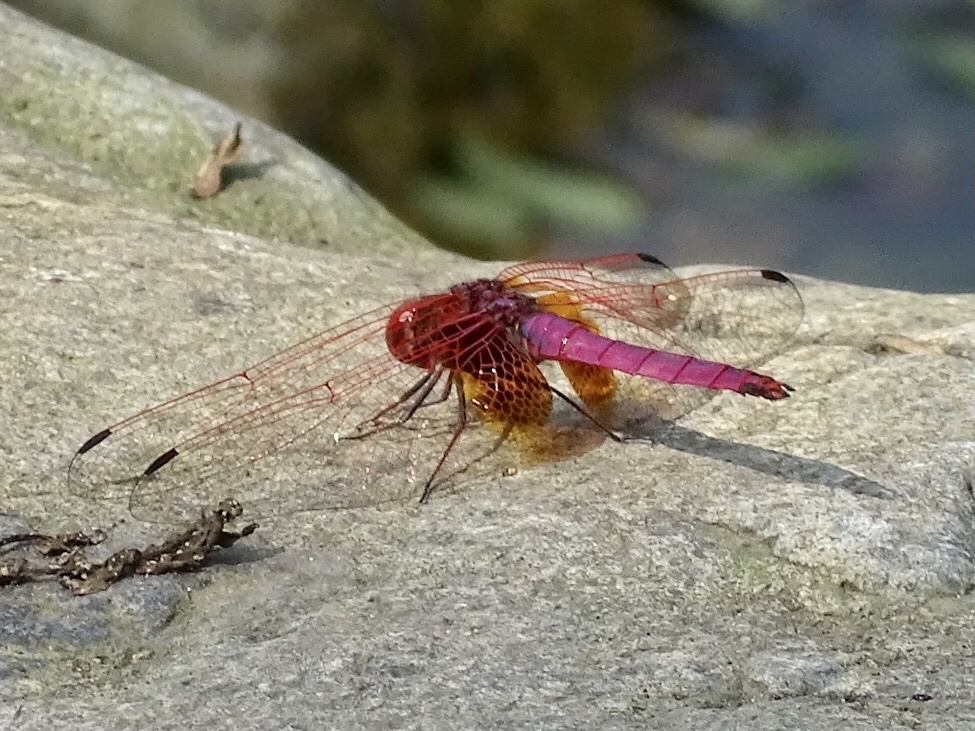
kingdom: Animalia
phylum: Arthropoda
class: Insecta
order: Odonata
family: Libellulidae
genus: Trithemis
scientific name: Trithemis aurora
